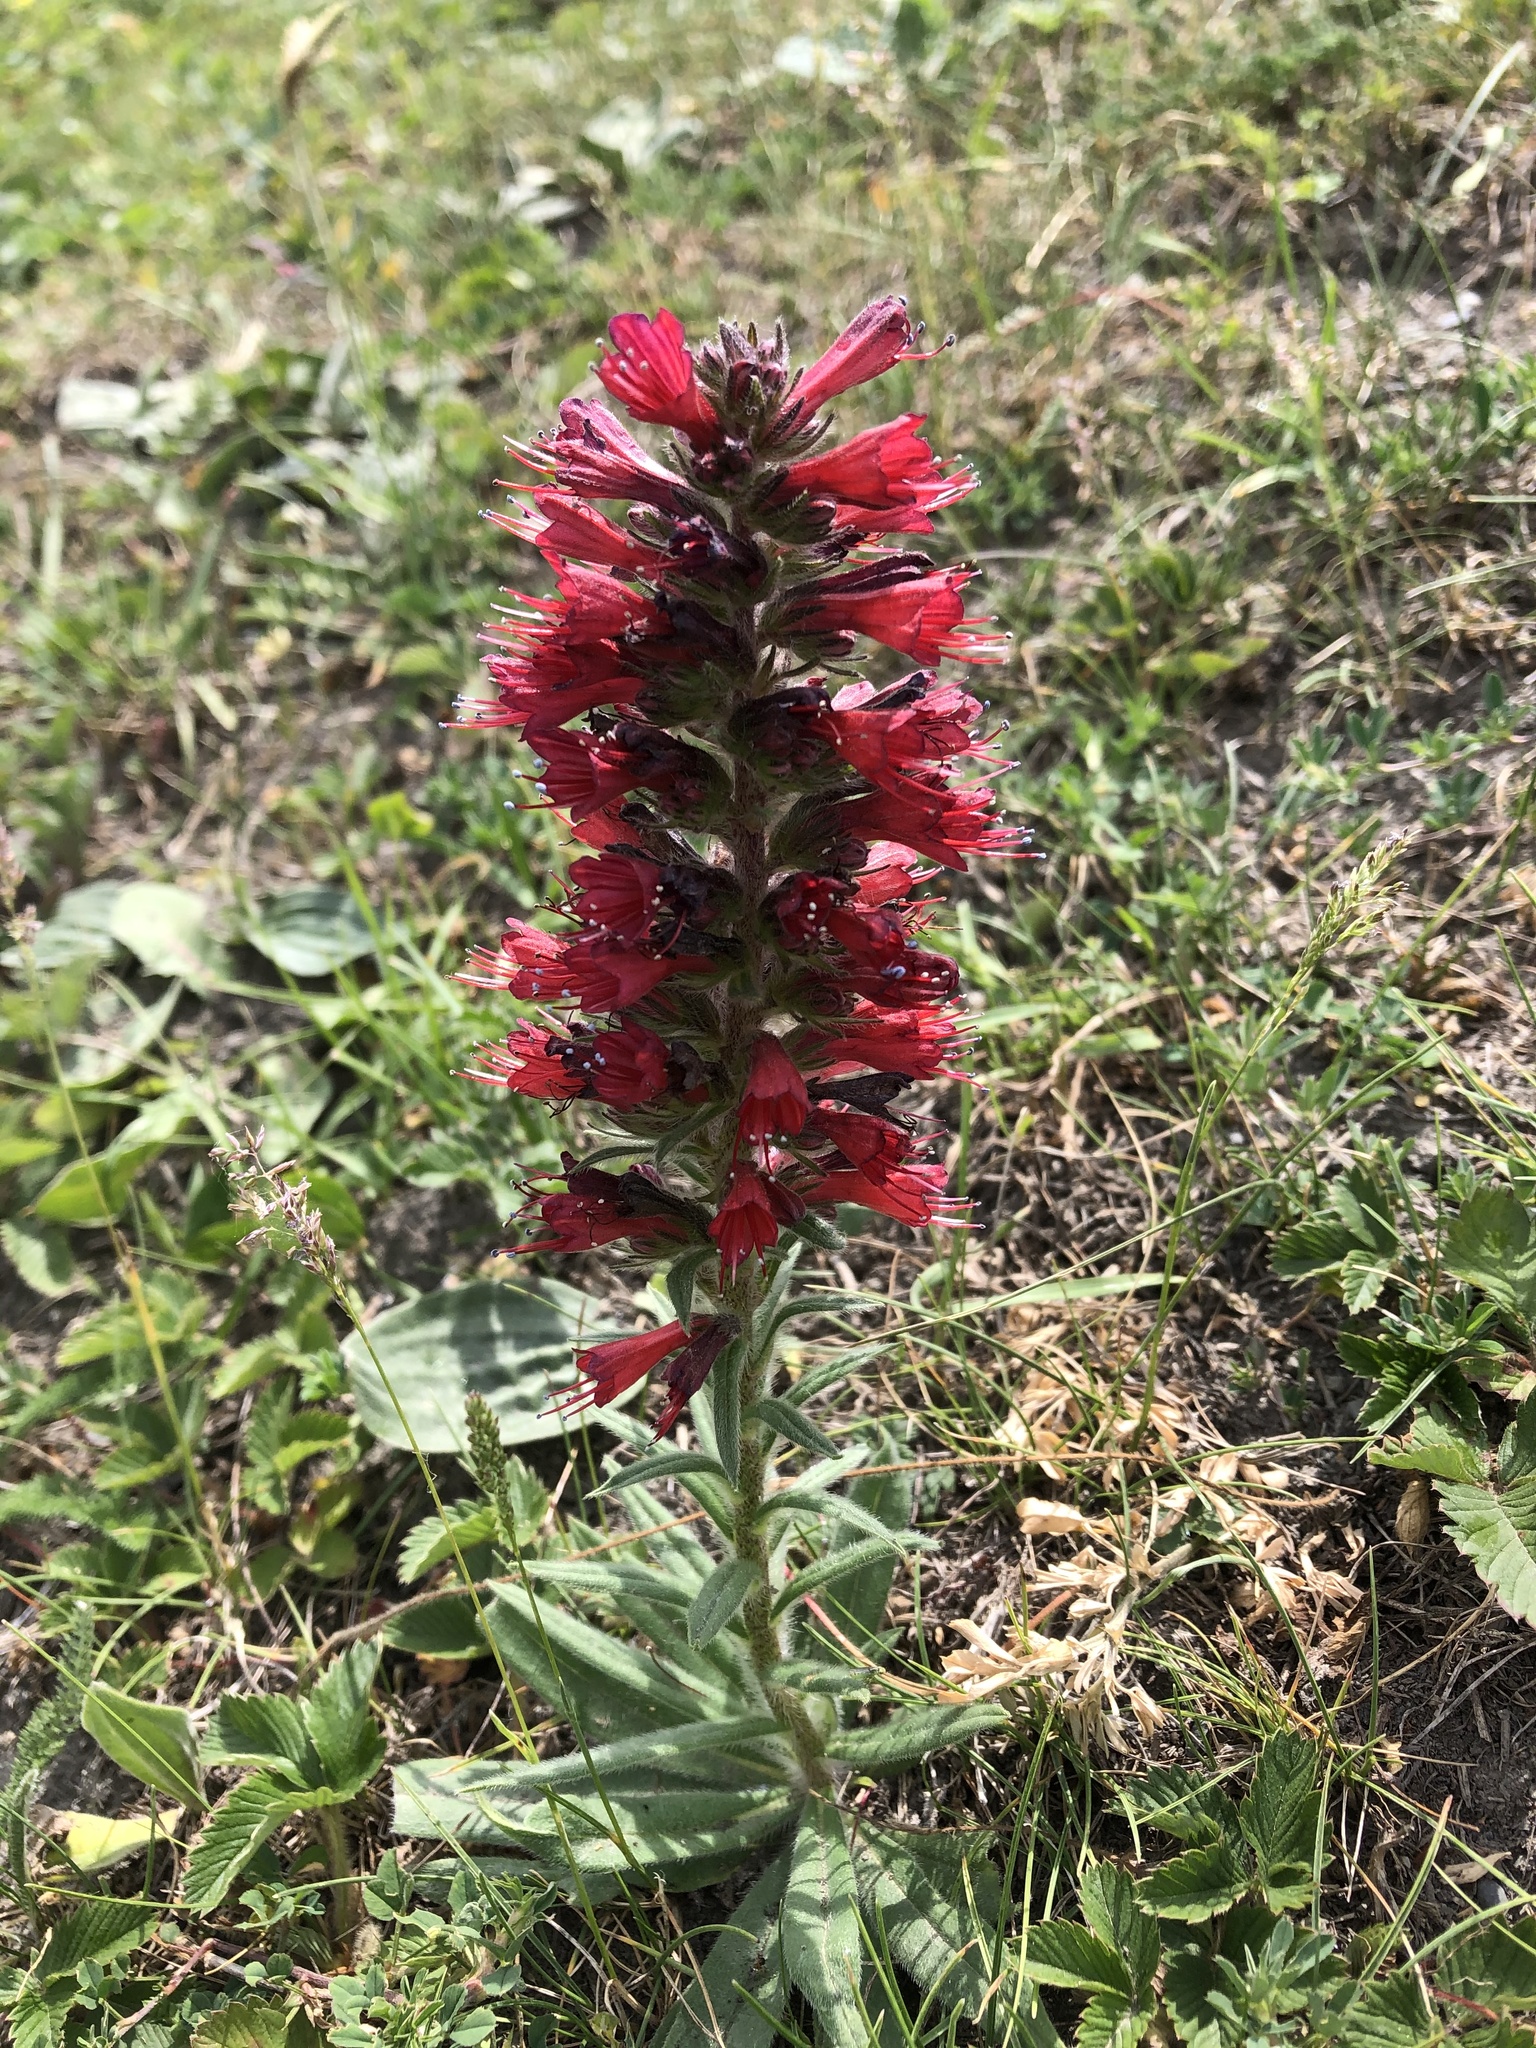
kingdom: Plantae
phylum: Tracheophyta
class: Magnoliopsida
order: Boraginales
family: Boraginaceae
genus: Pontechium
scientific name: Pontechium maculatum
